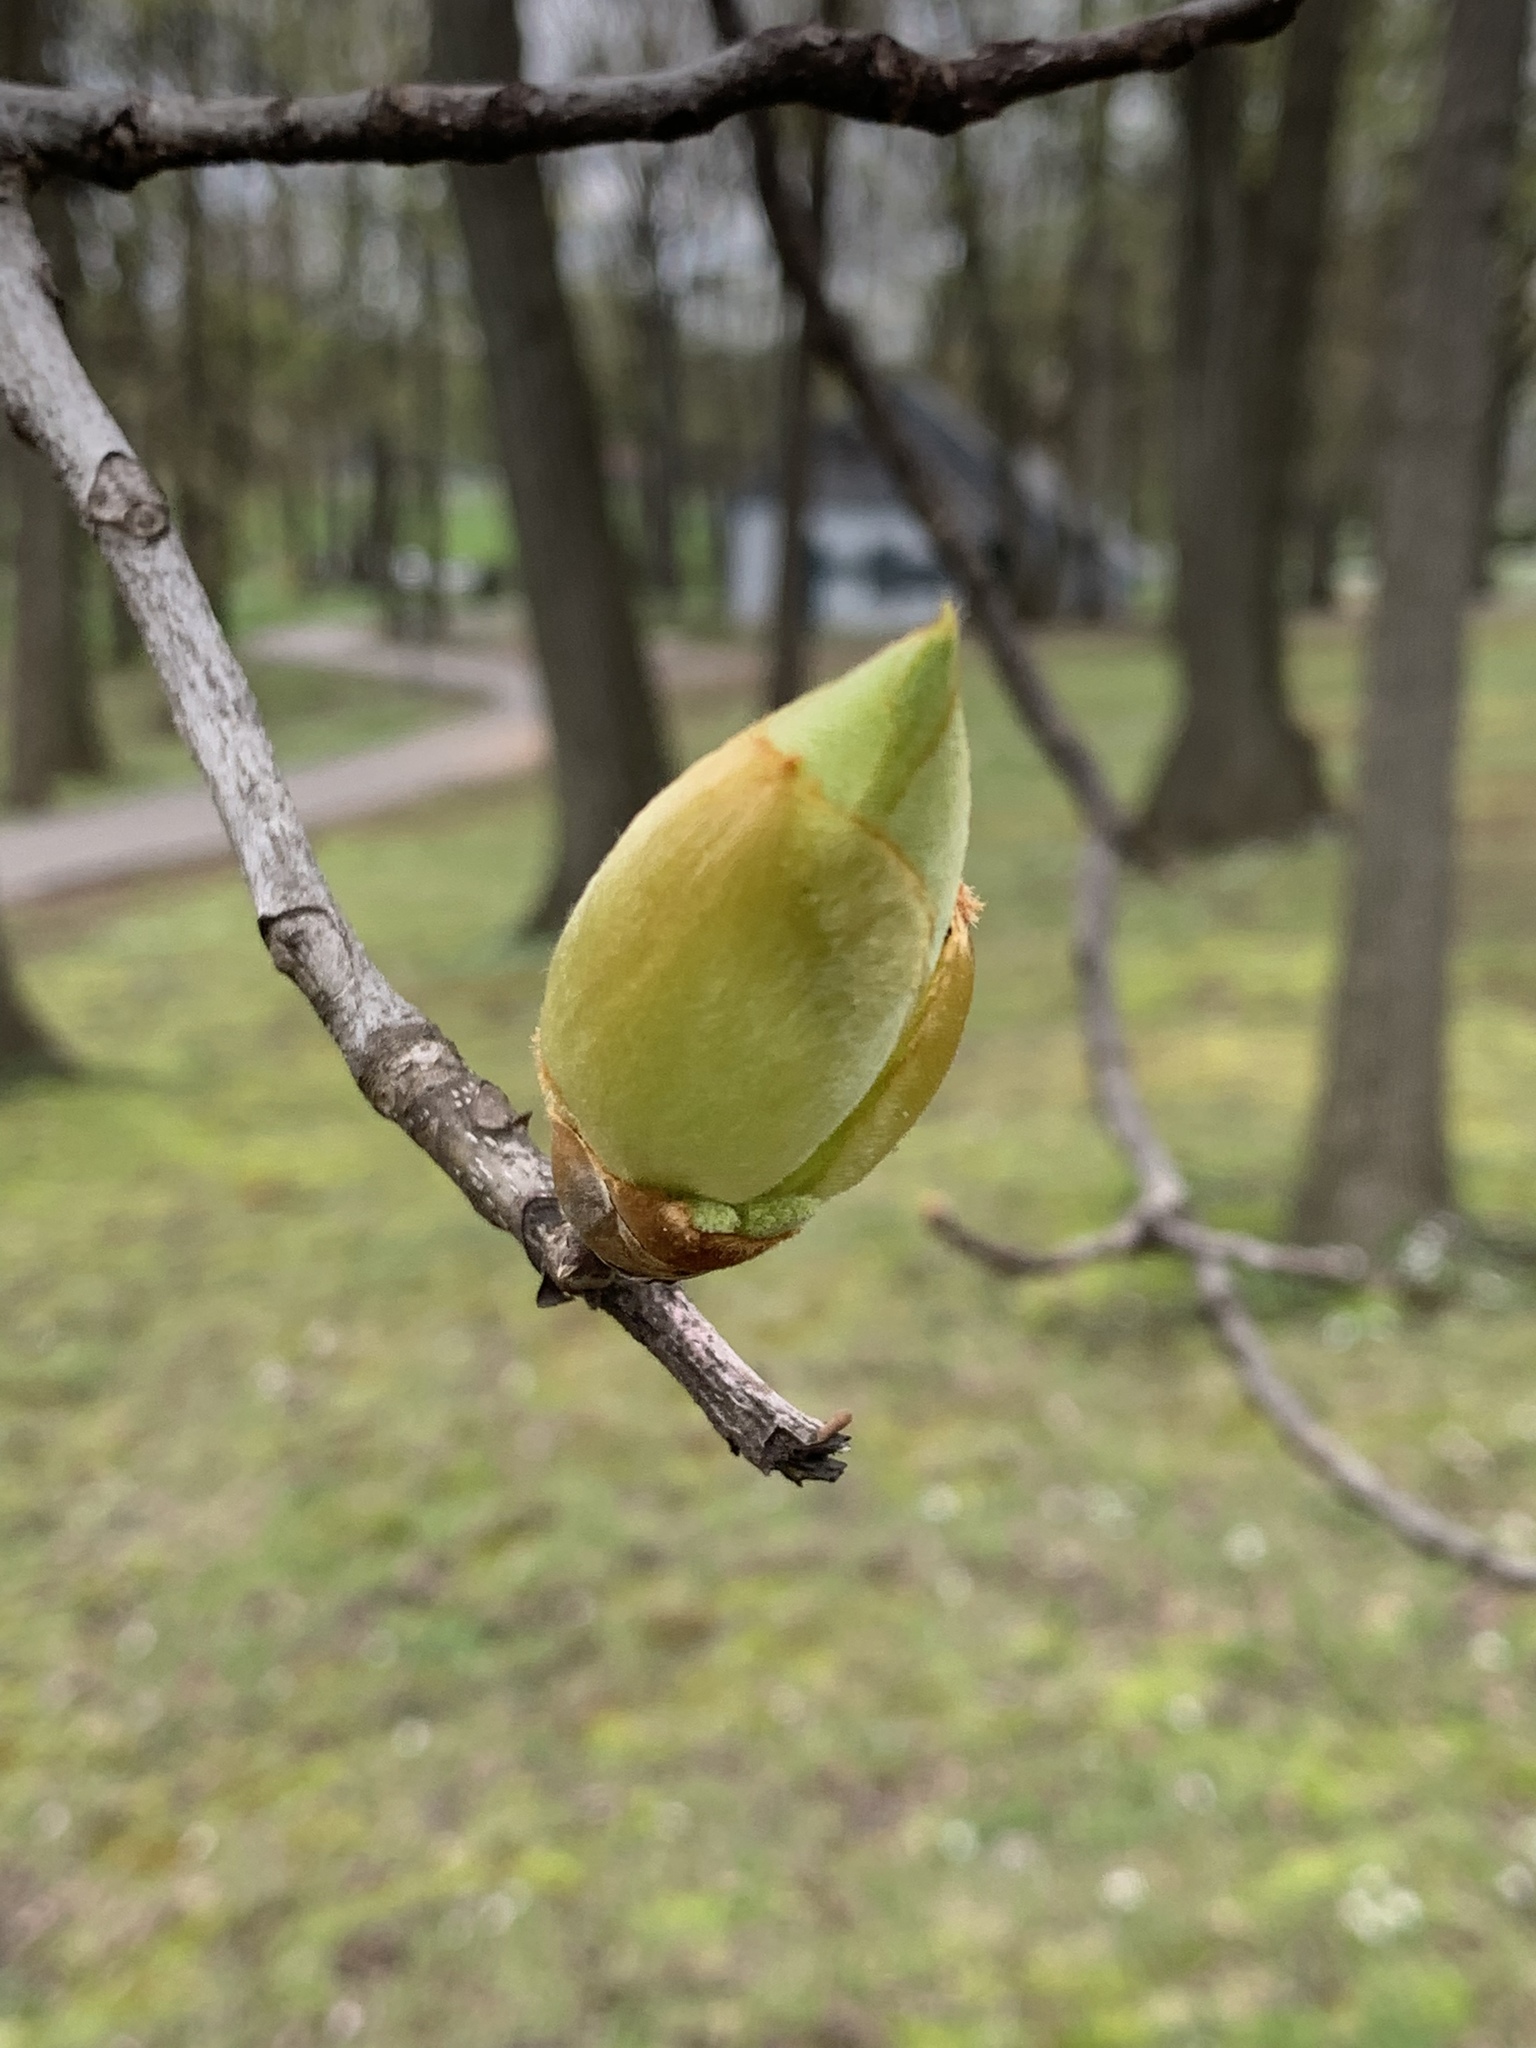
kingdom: Plantae
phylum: Tracheophyta
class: Magnoliopsida
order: Fagales
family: Juglandaceae
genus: Carya
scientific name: Carya ovata
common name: Shagbark hickory
